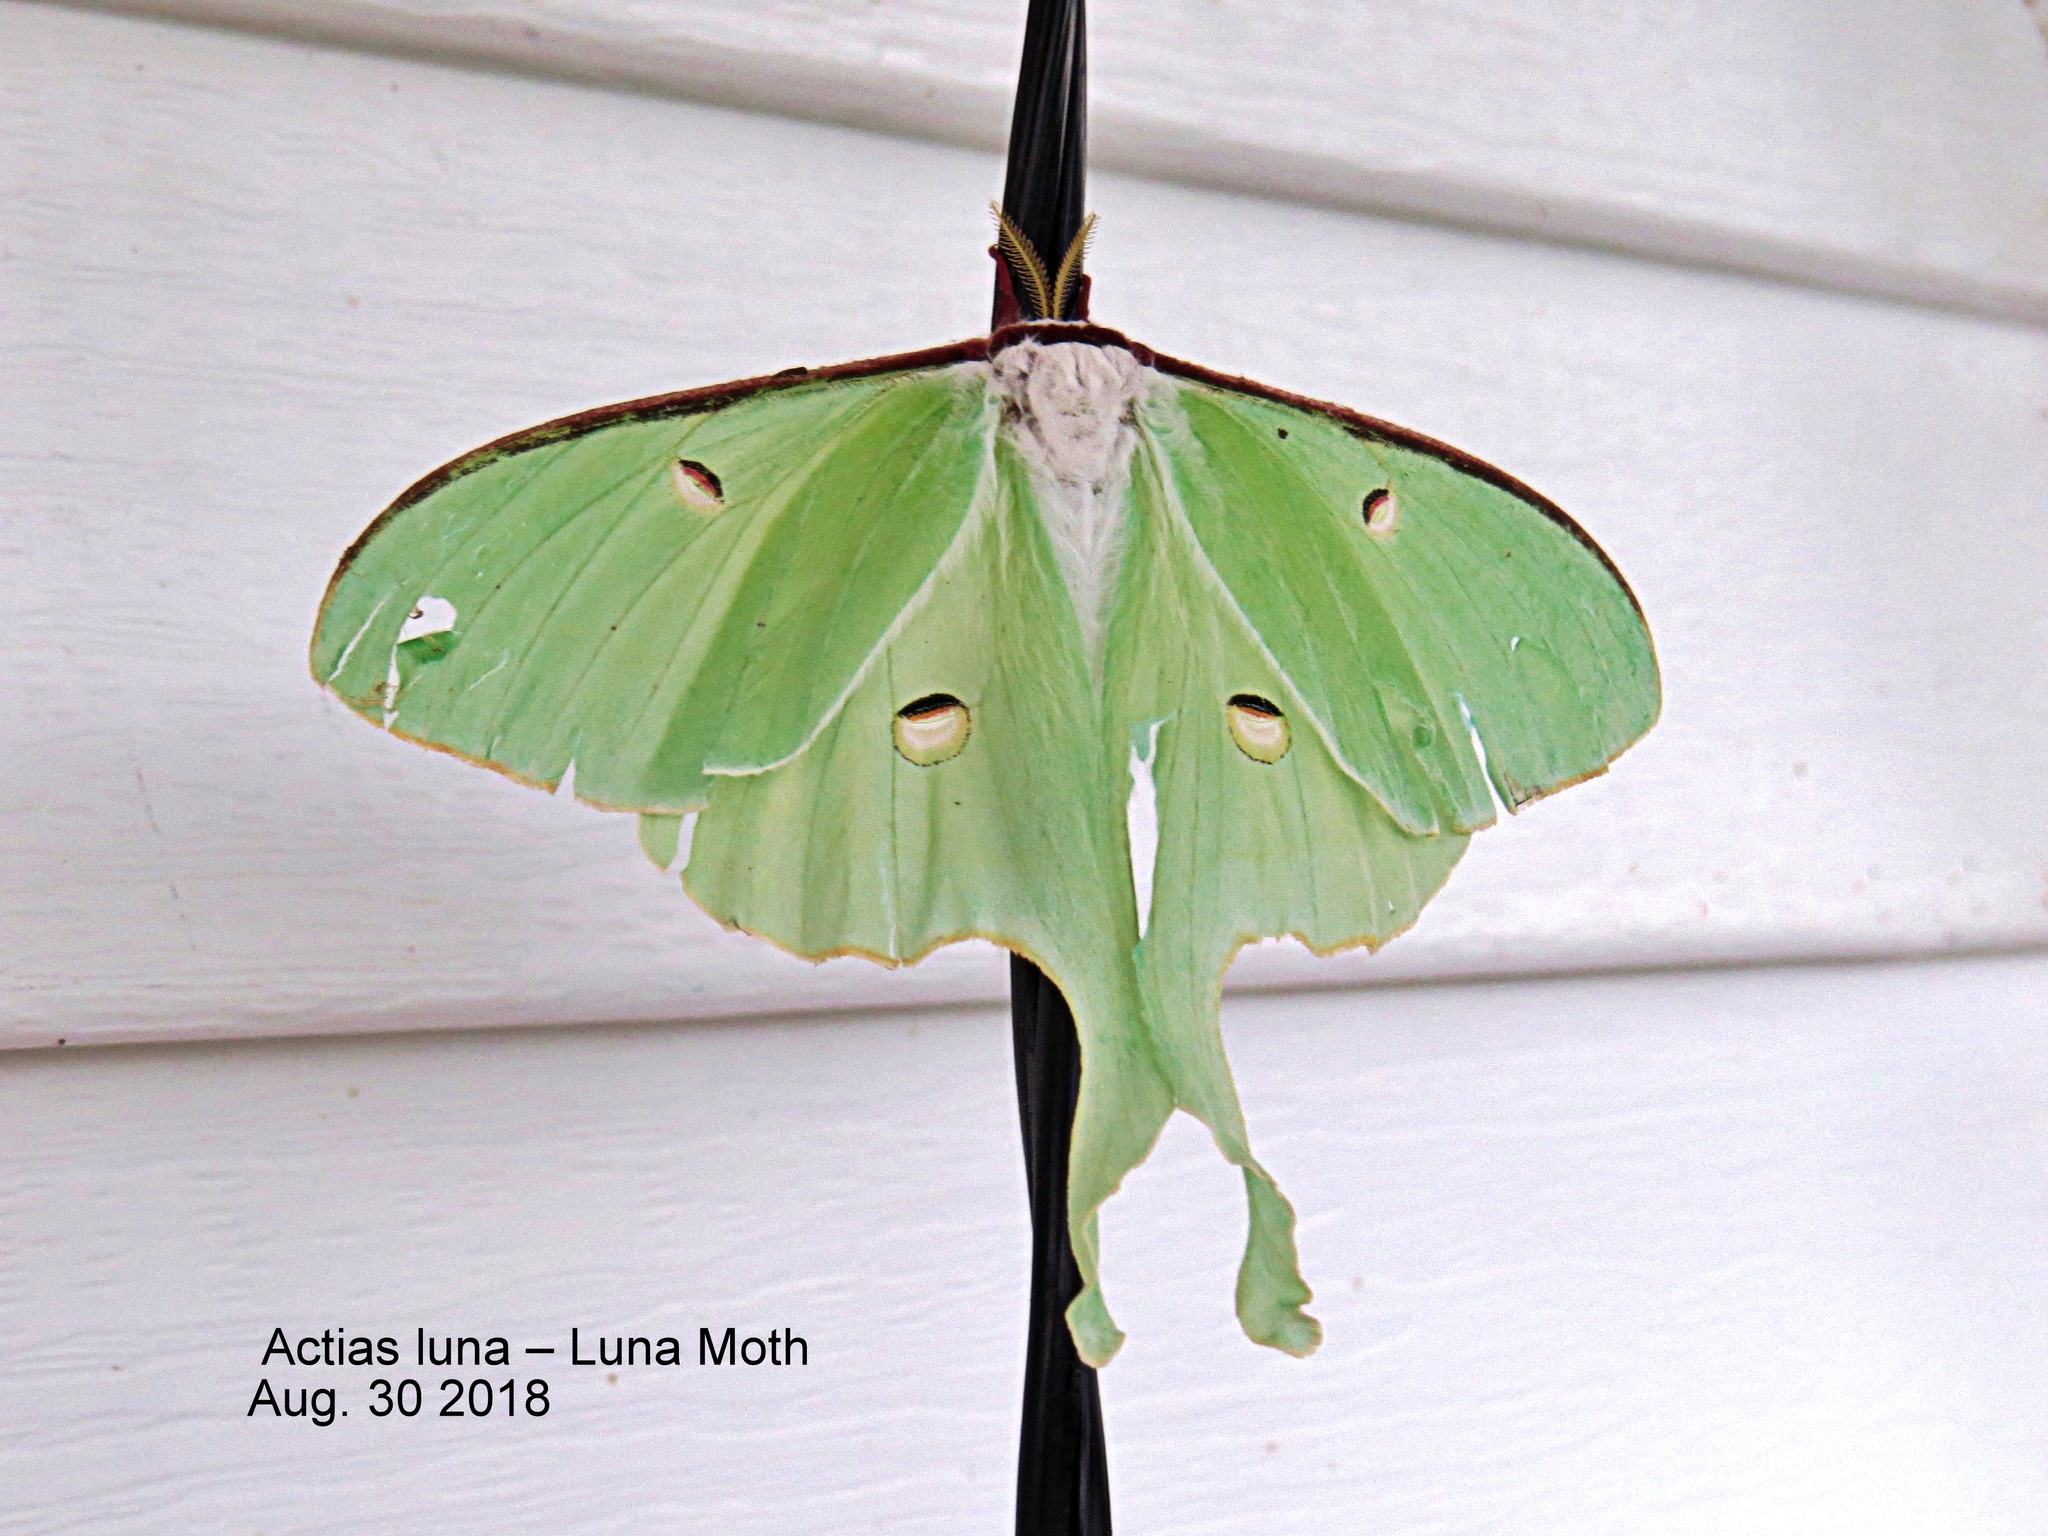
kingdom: Animalia
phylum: Arthropoda
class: Insecta
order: Lepidoptera
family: Saturniidae
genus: Actias
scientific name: Actias luna
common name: Luna moth
